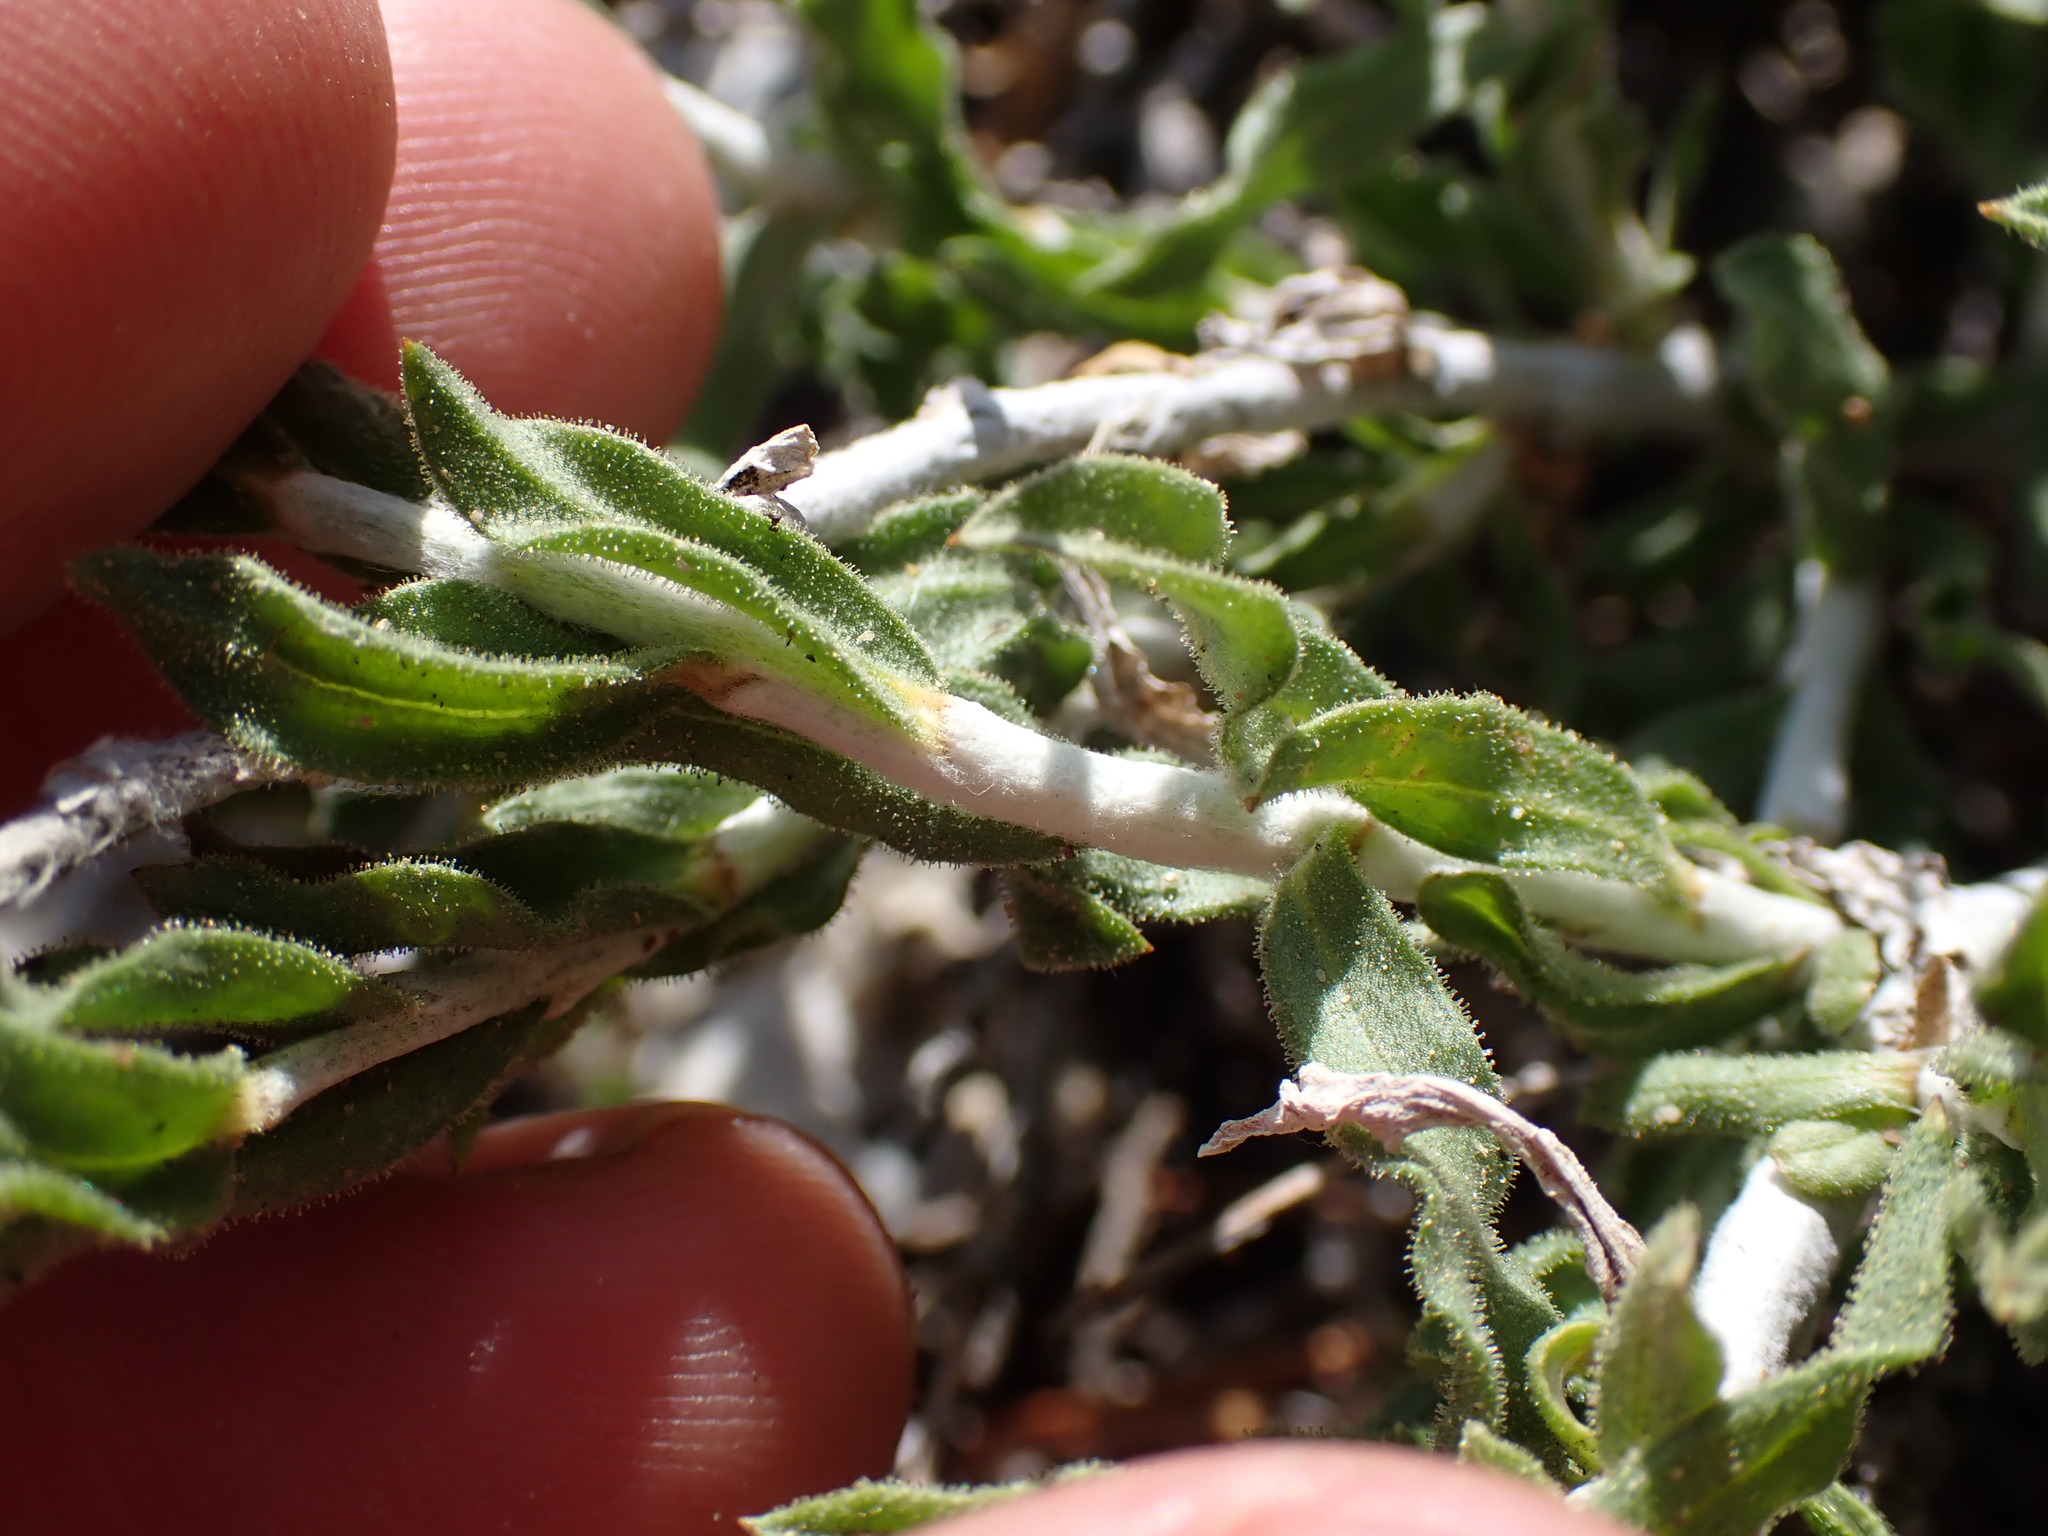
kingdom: Plantae
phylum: Tracheophyta
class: Magnoliopsida
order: Asterales
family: Asteraceae
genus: Ericameria
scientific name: Ericameria discoidea
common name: Sharp-scale goldenweed
